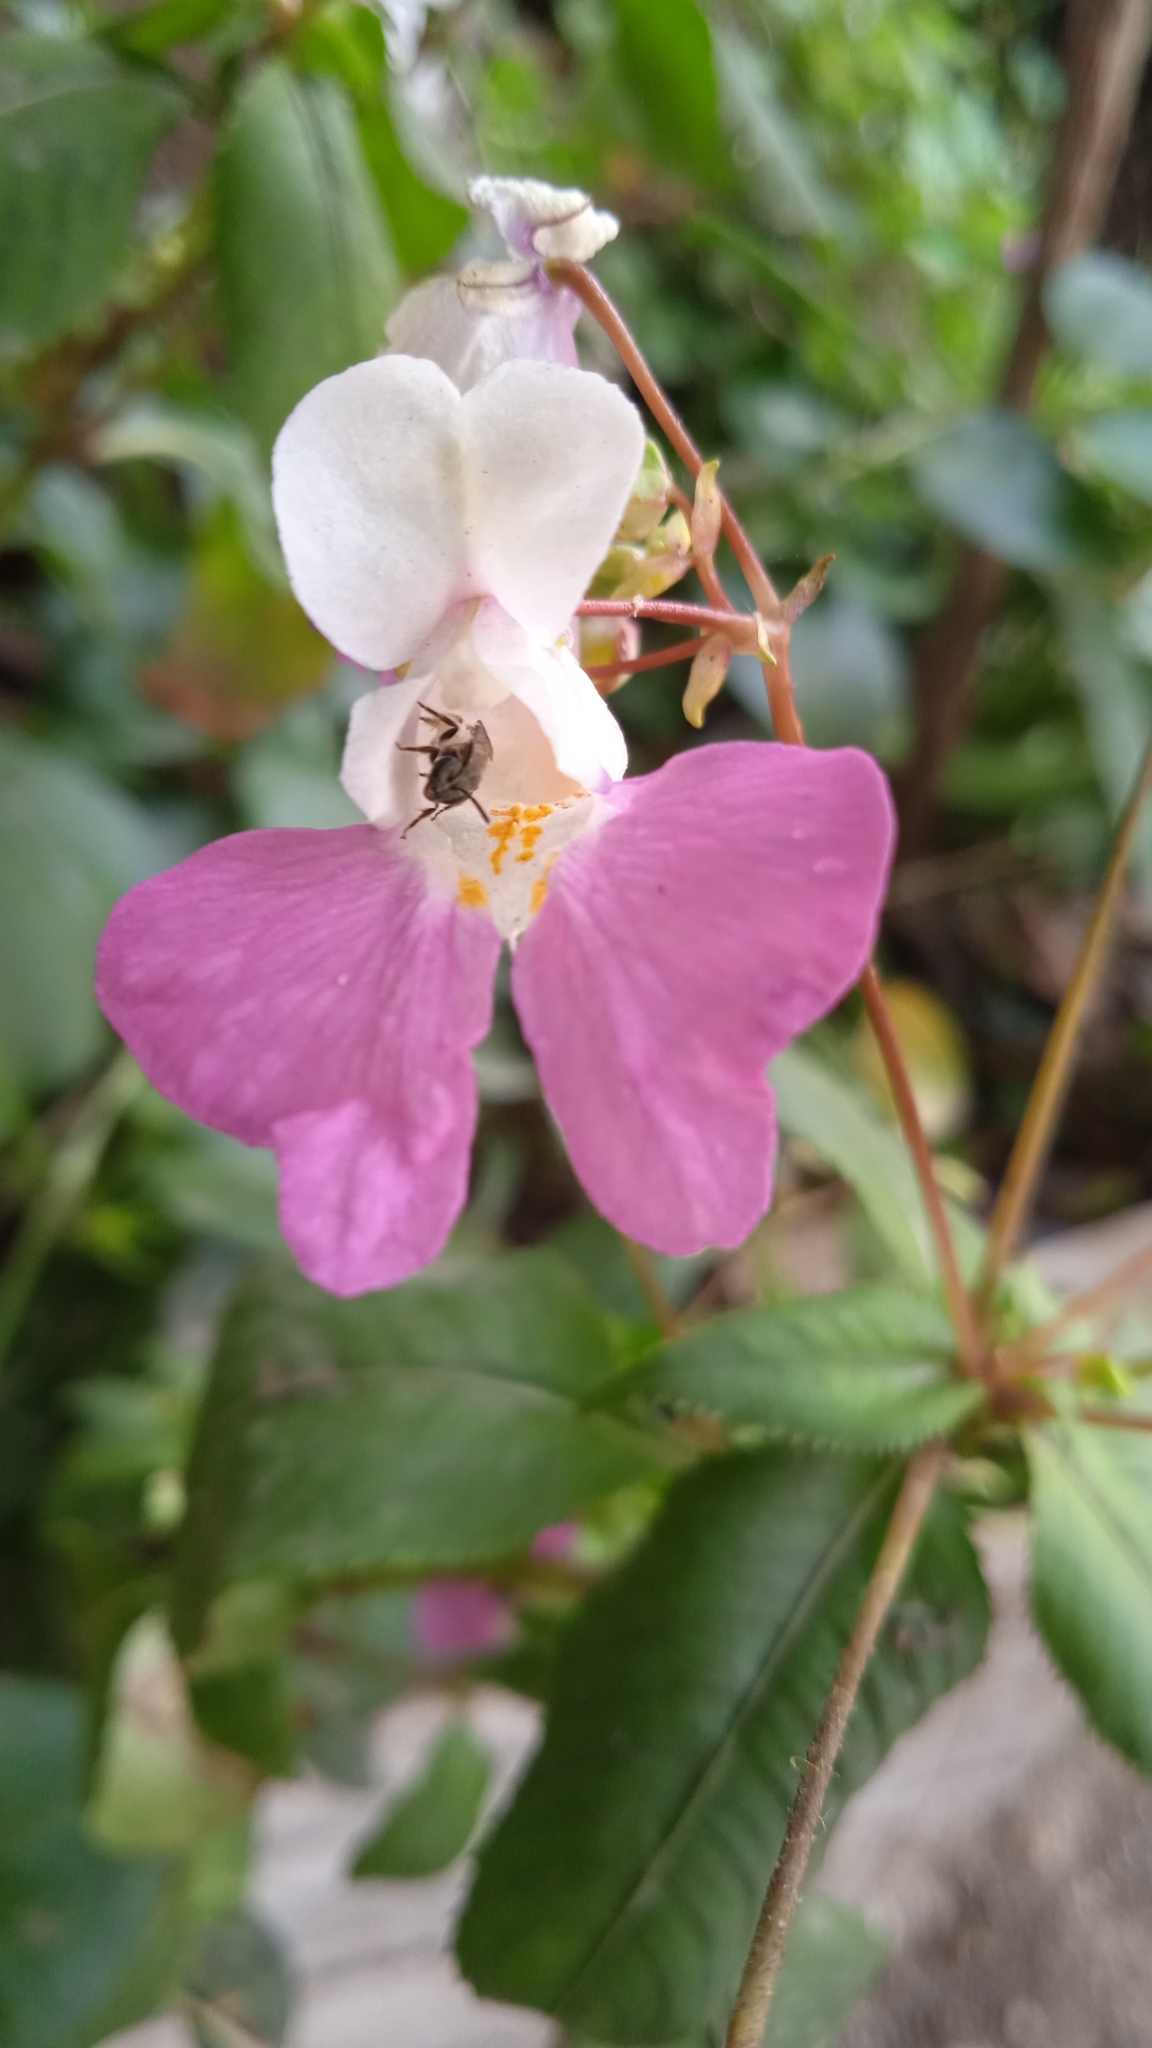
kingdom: Plantae
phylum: Tracheophyta
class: Magnoliopsida
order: Ericales
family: Balsaminaceae
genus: Impatiens
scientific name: Impatiens balfourii
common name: Balfour's touch-me-not
